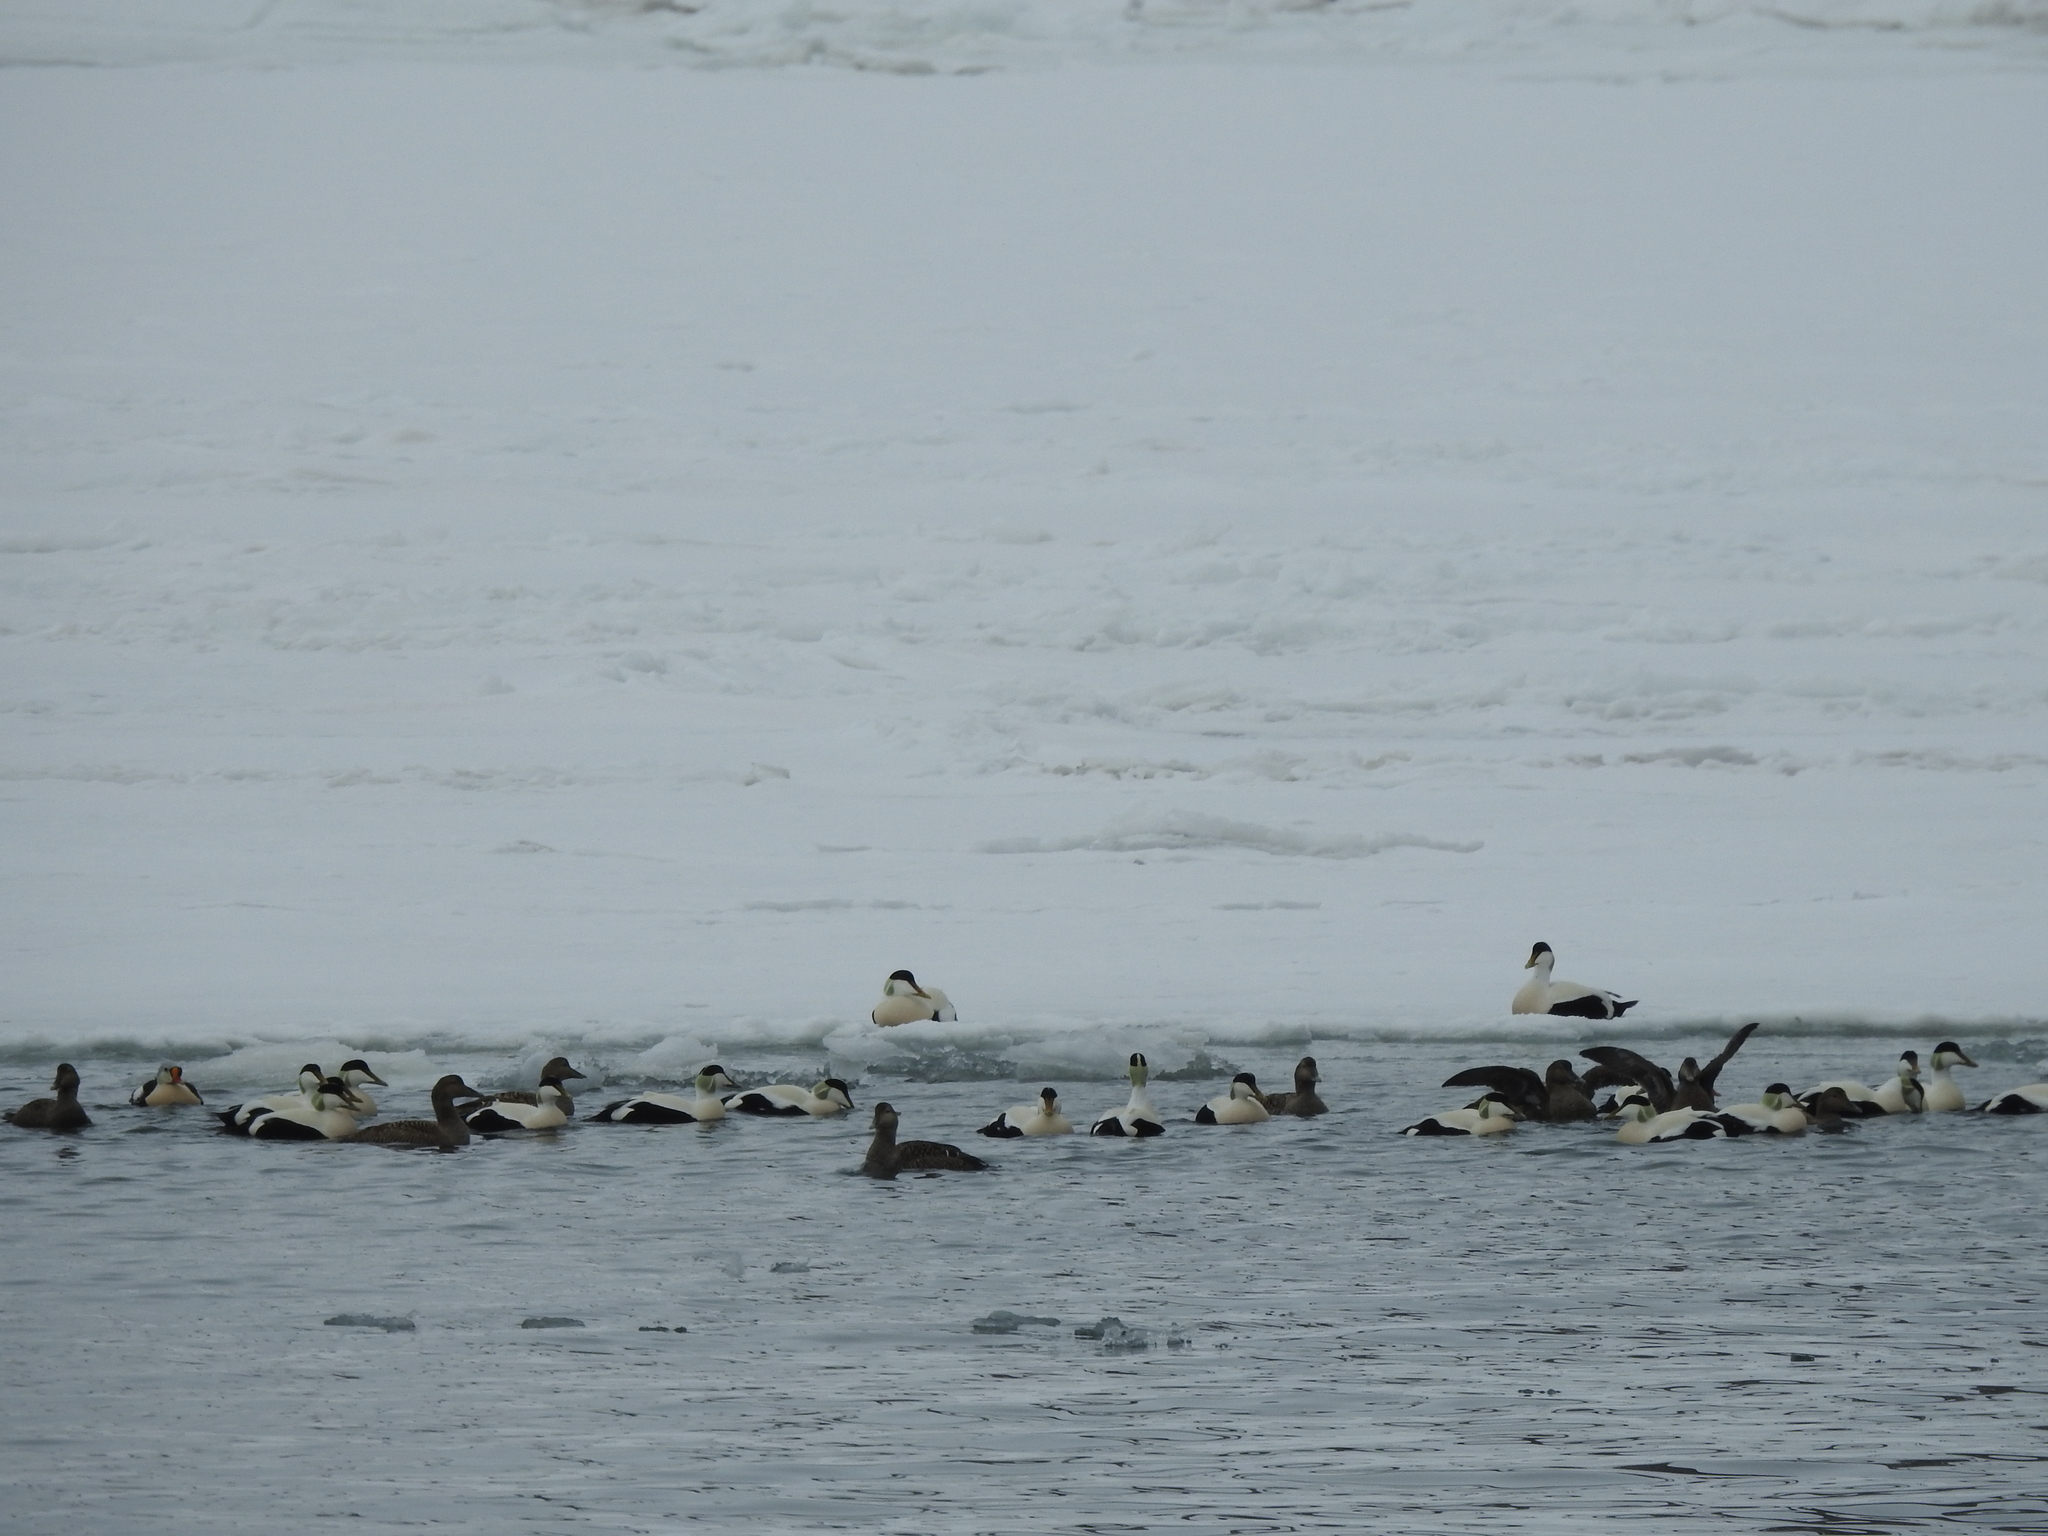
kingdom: Animalia
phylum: Chordata
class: Aves
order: Anseriformes
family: Anatidae
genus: Somateria
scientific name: Somateria spectabilis
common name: King eider
